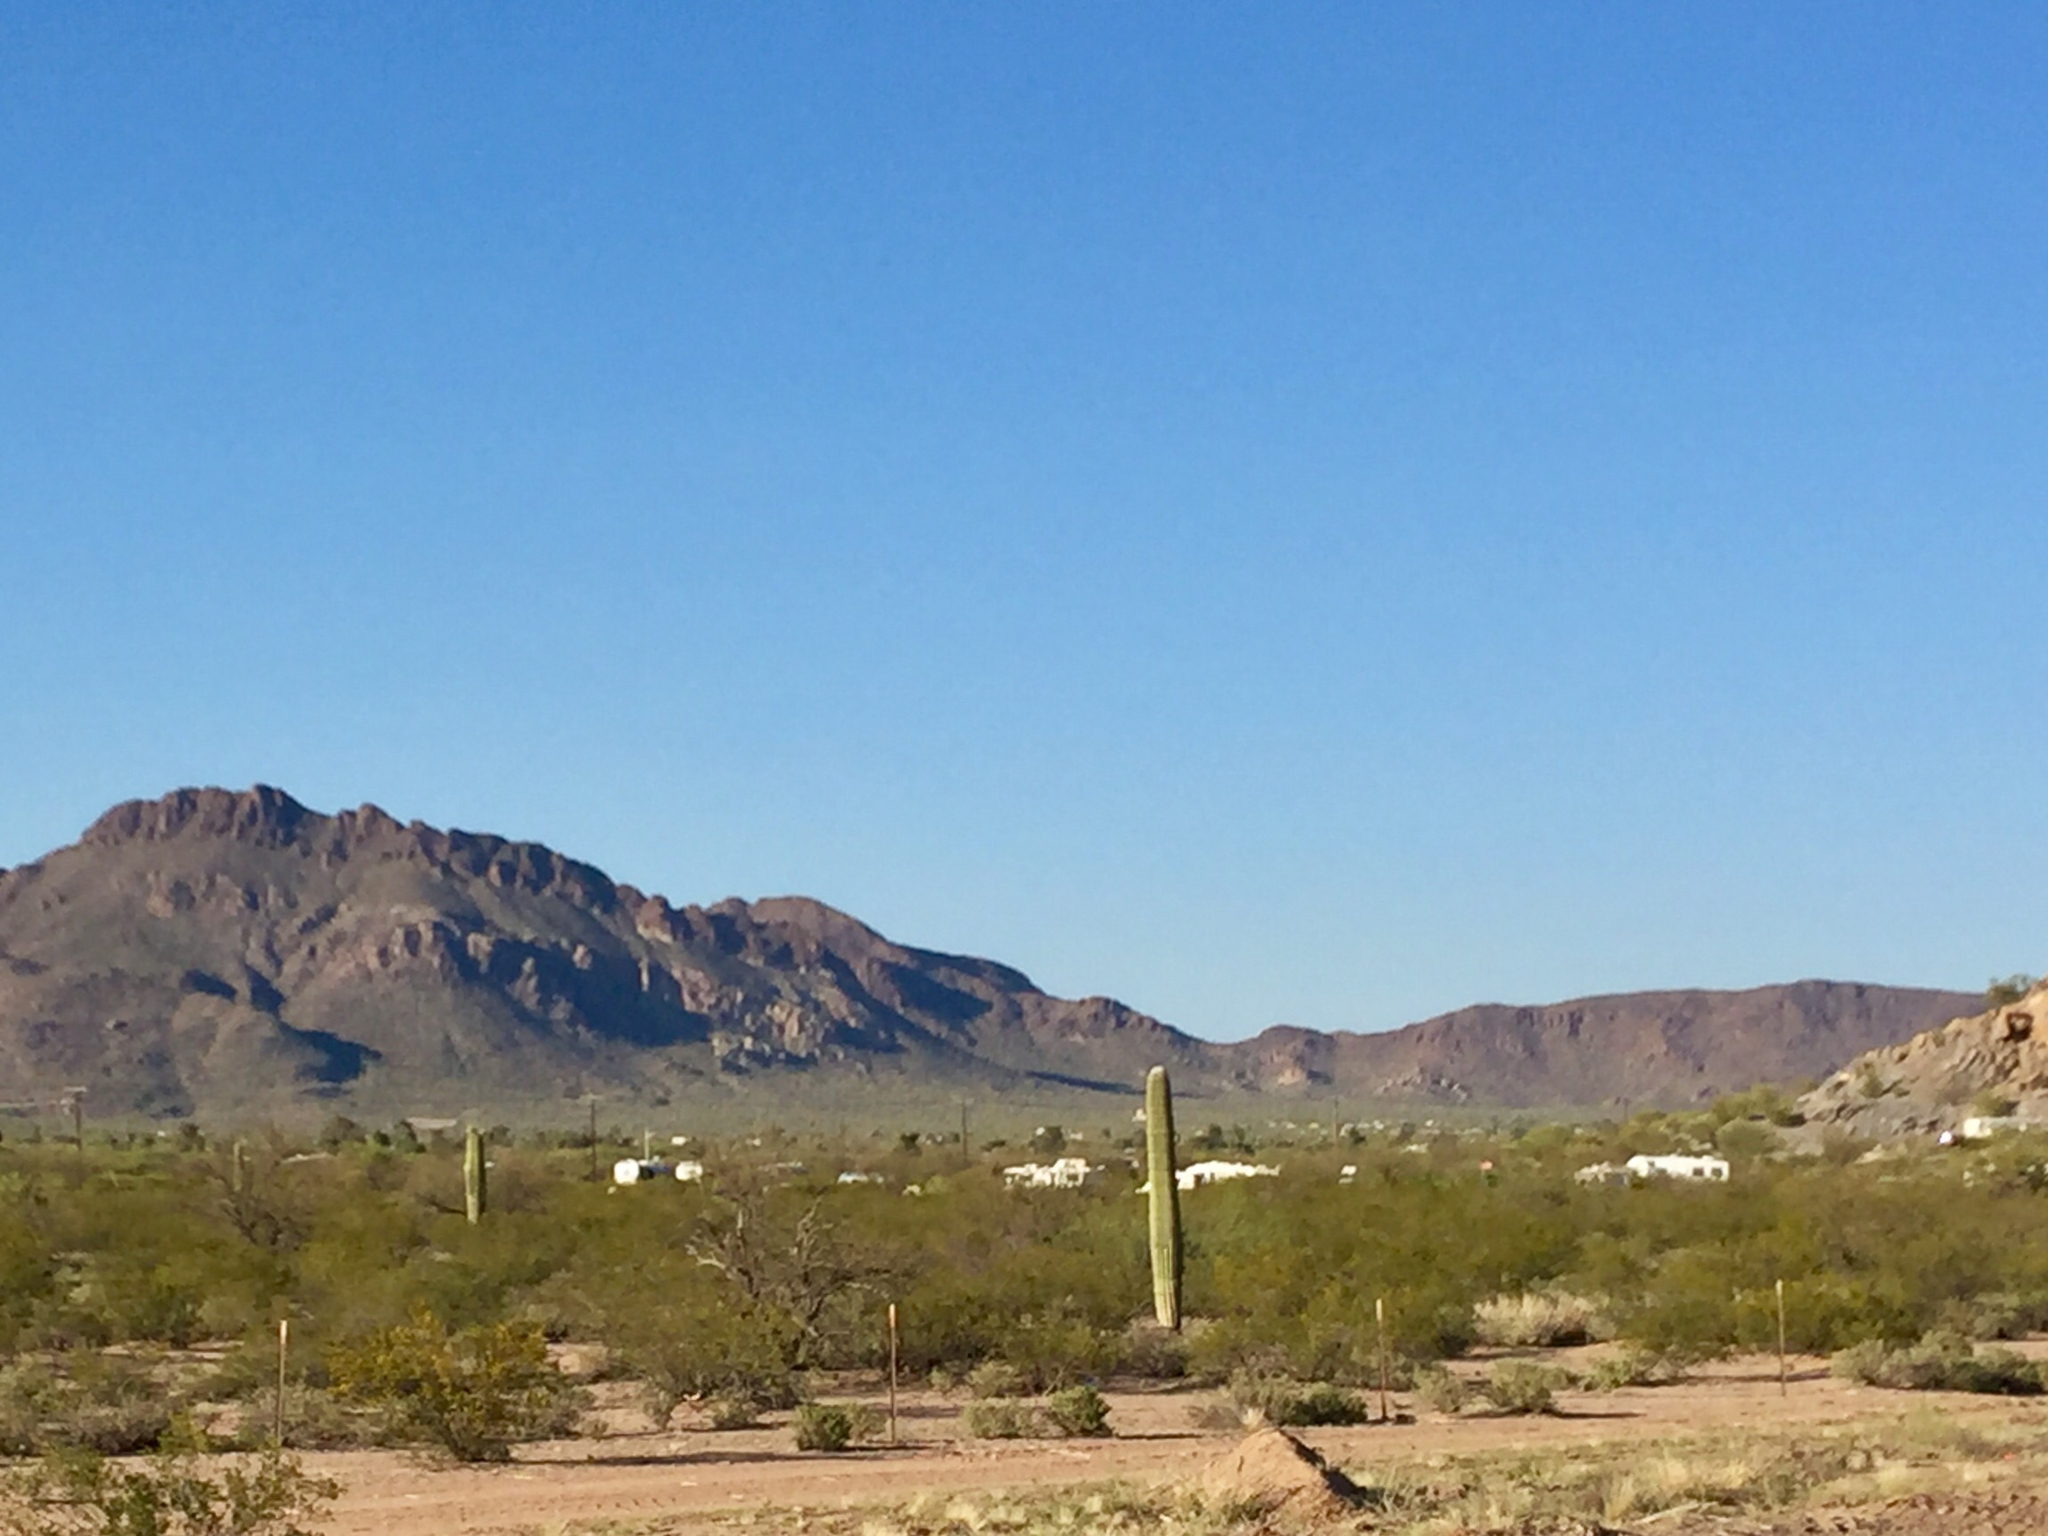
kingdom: Plantae
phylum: Tracheophyta
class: Magnoliopsida
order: Caryophyllales
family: Cactaceae
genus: Carnegiea
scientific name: Carnegiea gigantea
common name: Saguaro
